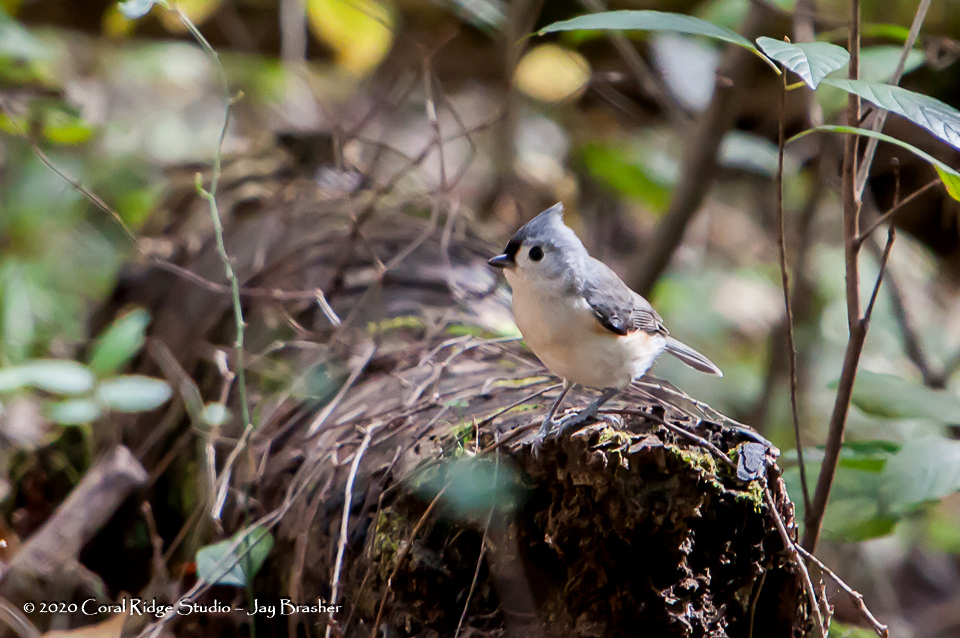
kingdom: Animalia
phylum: Chordata
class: Aves
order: Passeriformes
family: Paridae
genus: Baeolophus
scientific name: Baeolophus bicolor
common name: Tufted titmouse
